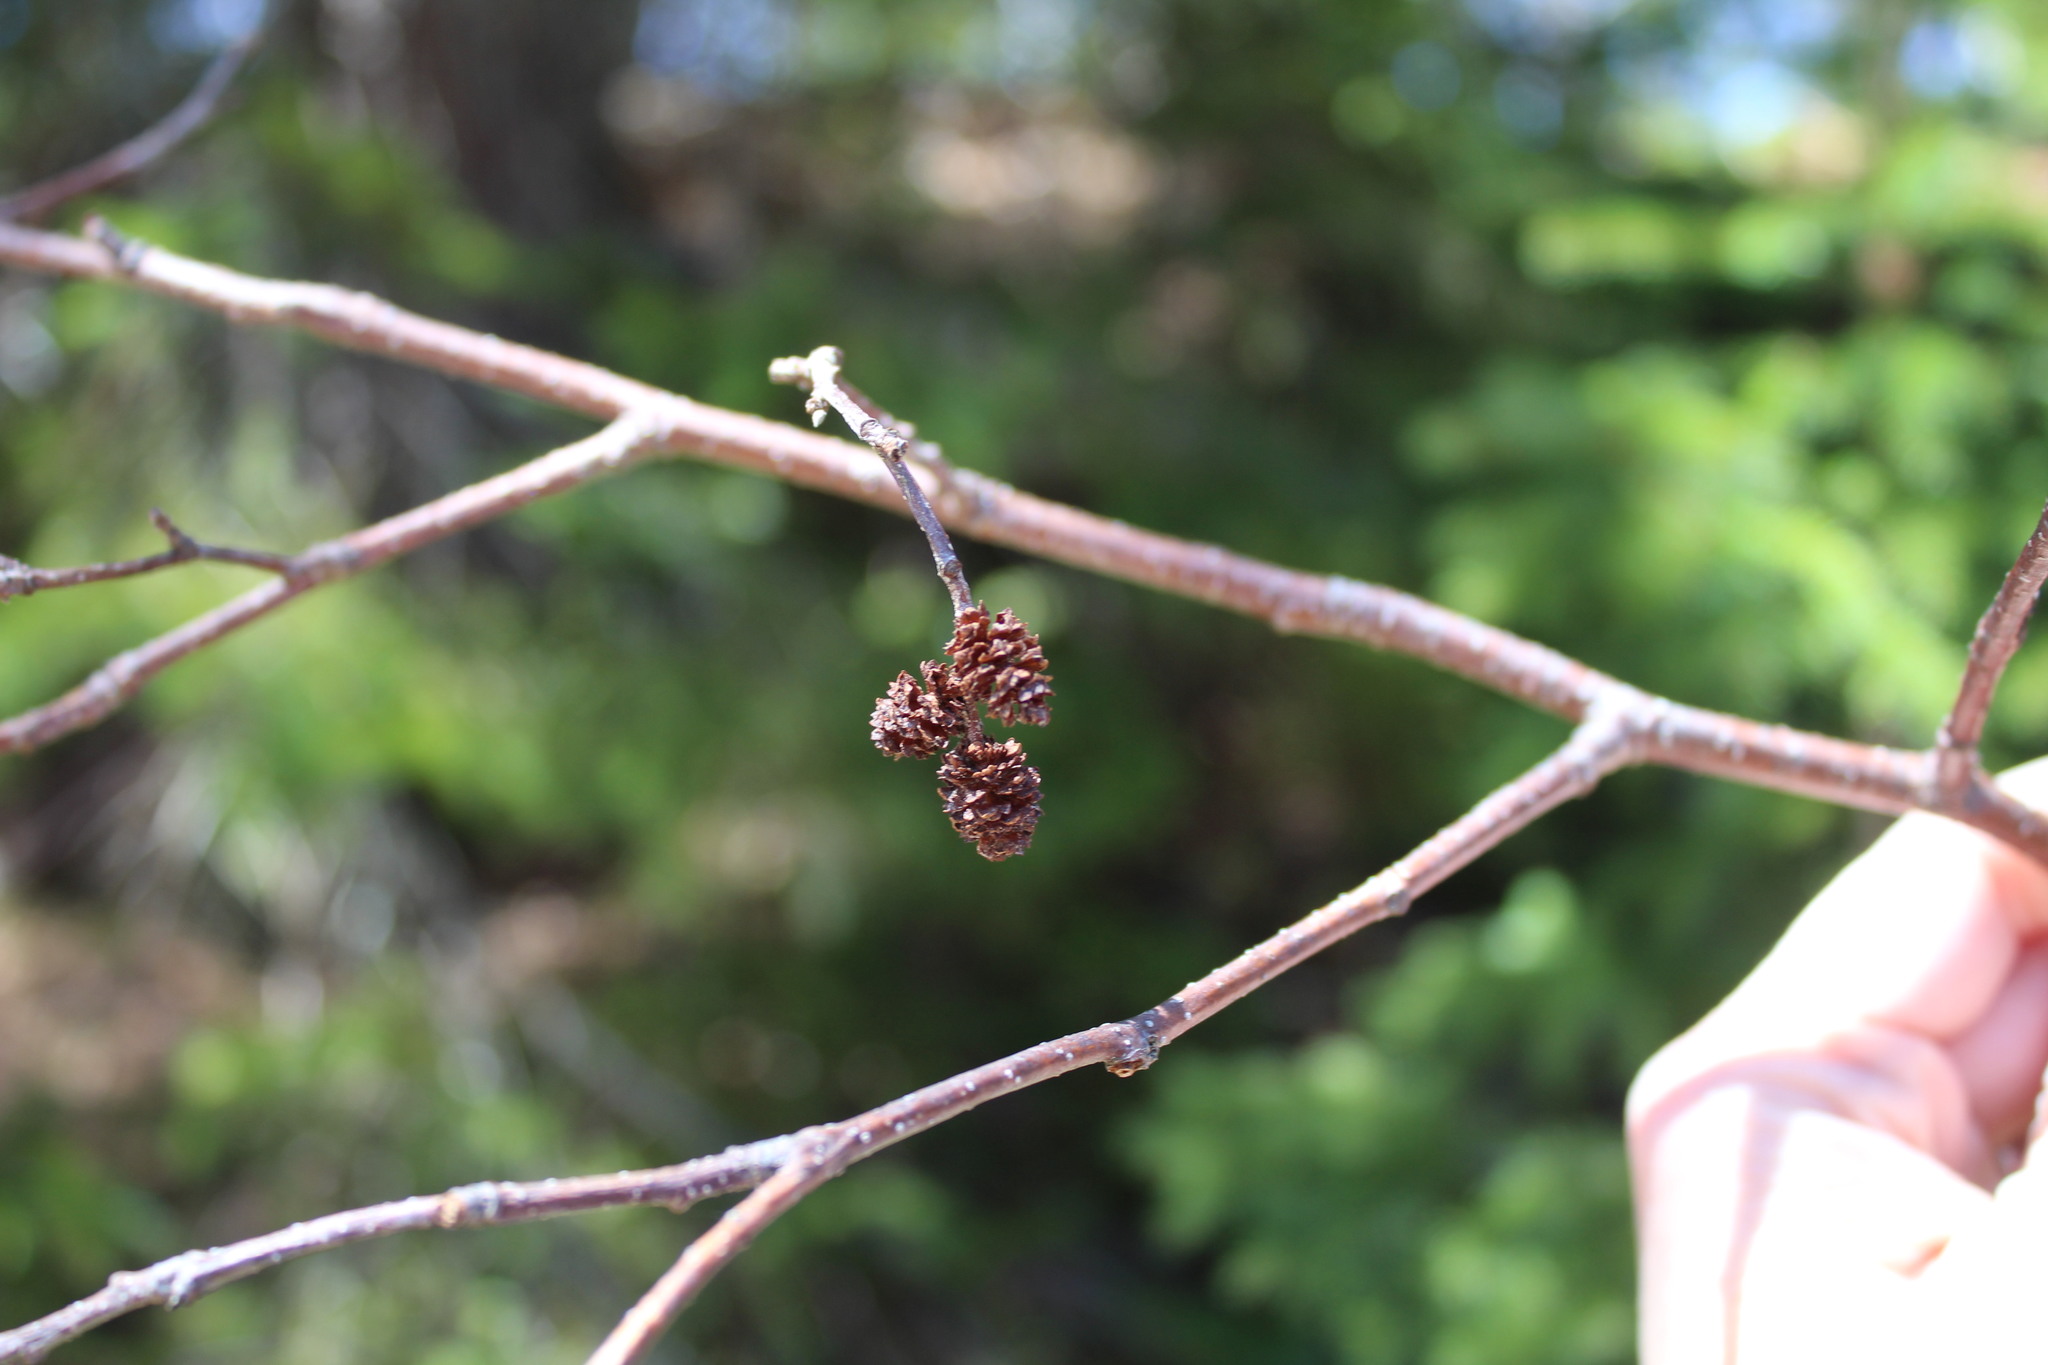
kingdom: Plantae
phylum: Tracheophyta
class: Magnoliopsida
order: Fagales
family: Betulaceae
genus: Alnus
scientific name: Alnus incana
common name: Grey alder
